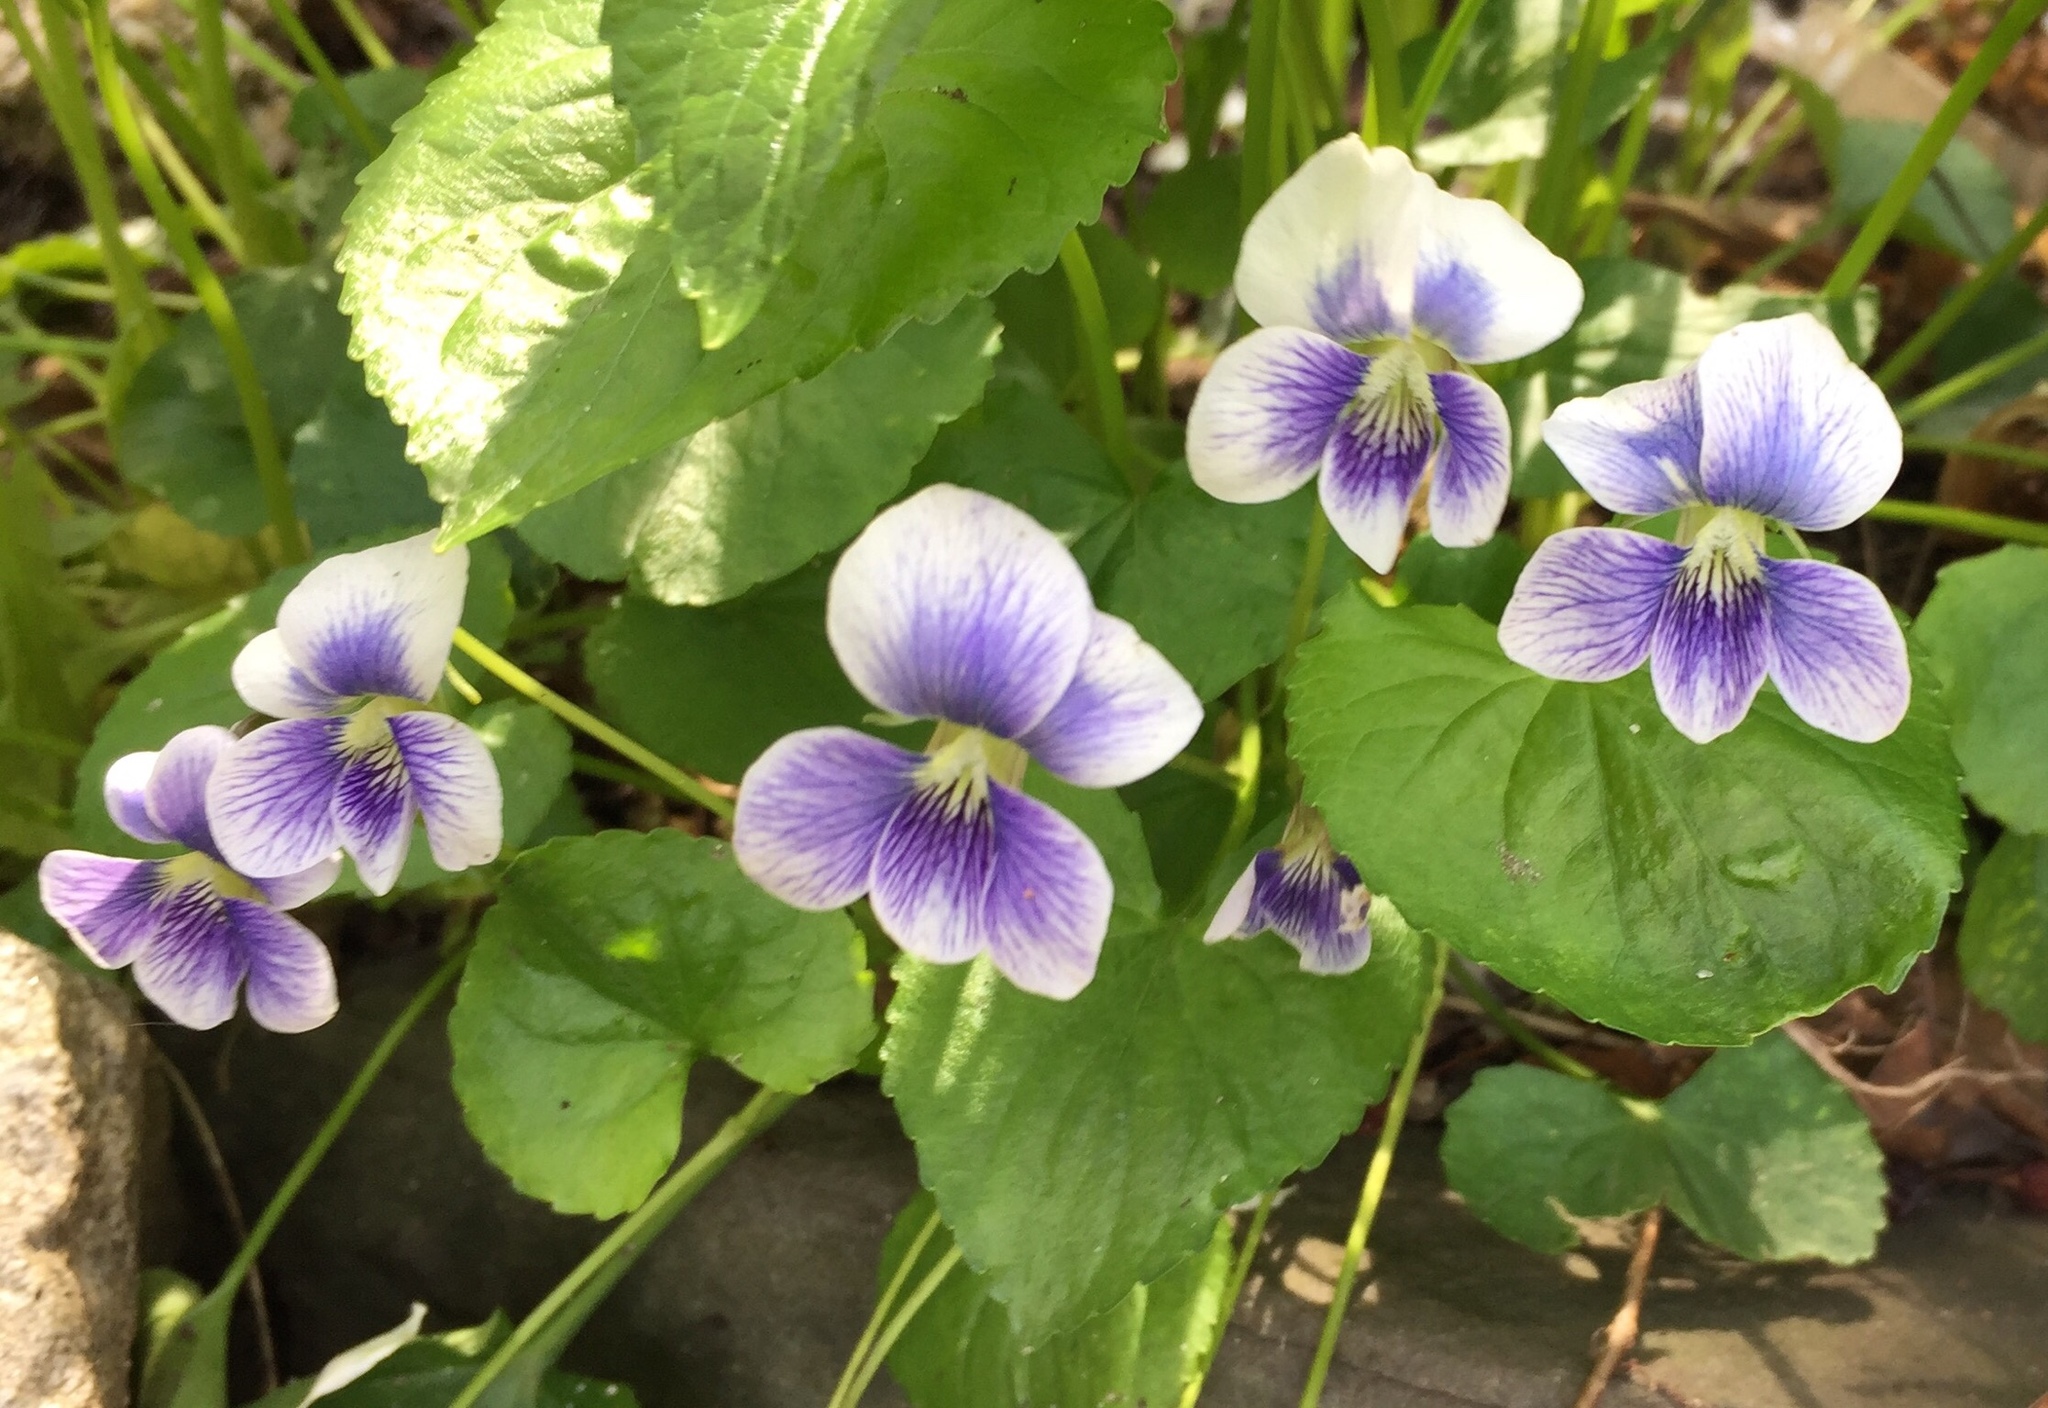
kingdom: Plantae
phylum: Tracheophyta
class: Magnoliopsida
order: Malpighiales
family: Violaceae
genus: Viola
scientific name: Viola sororia
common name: Dooryard violet
